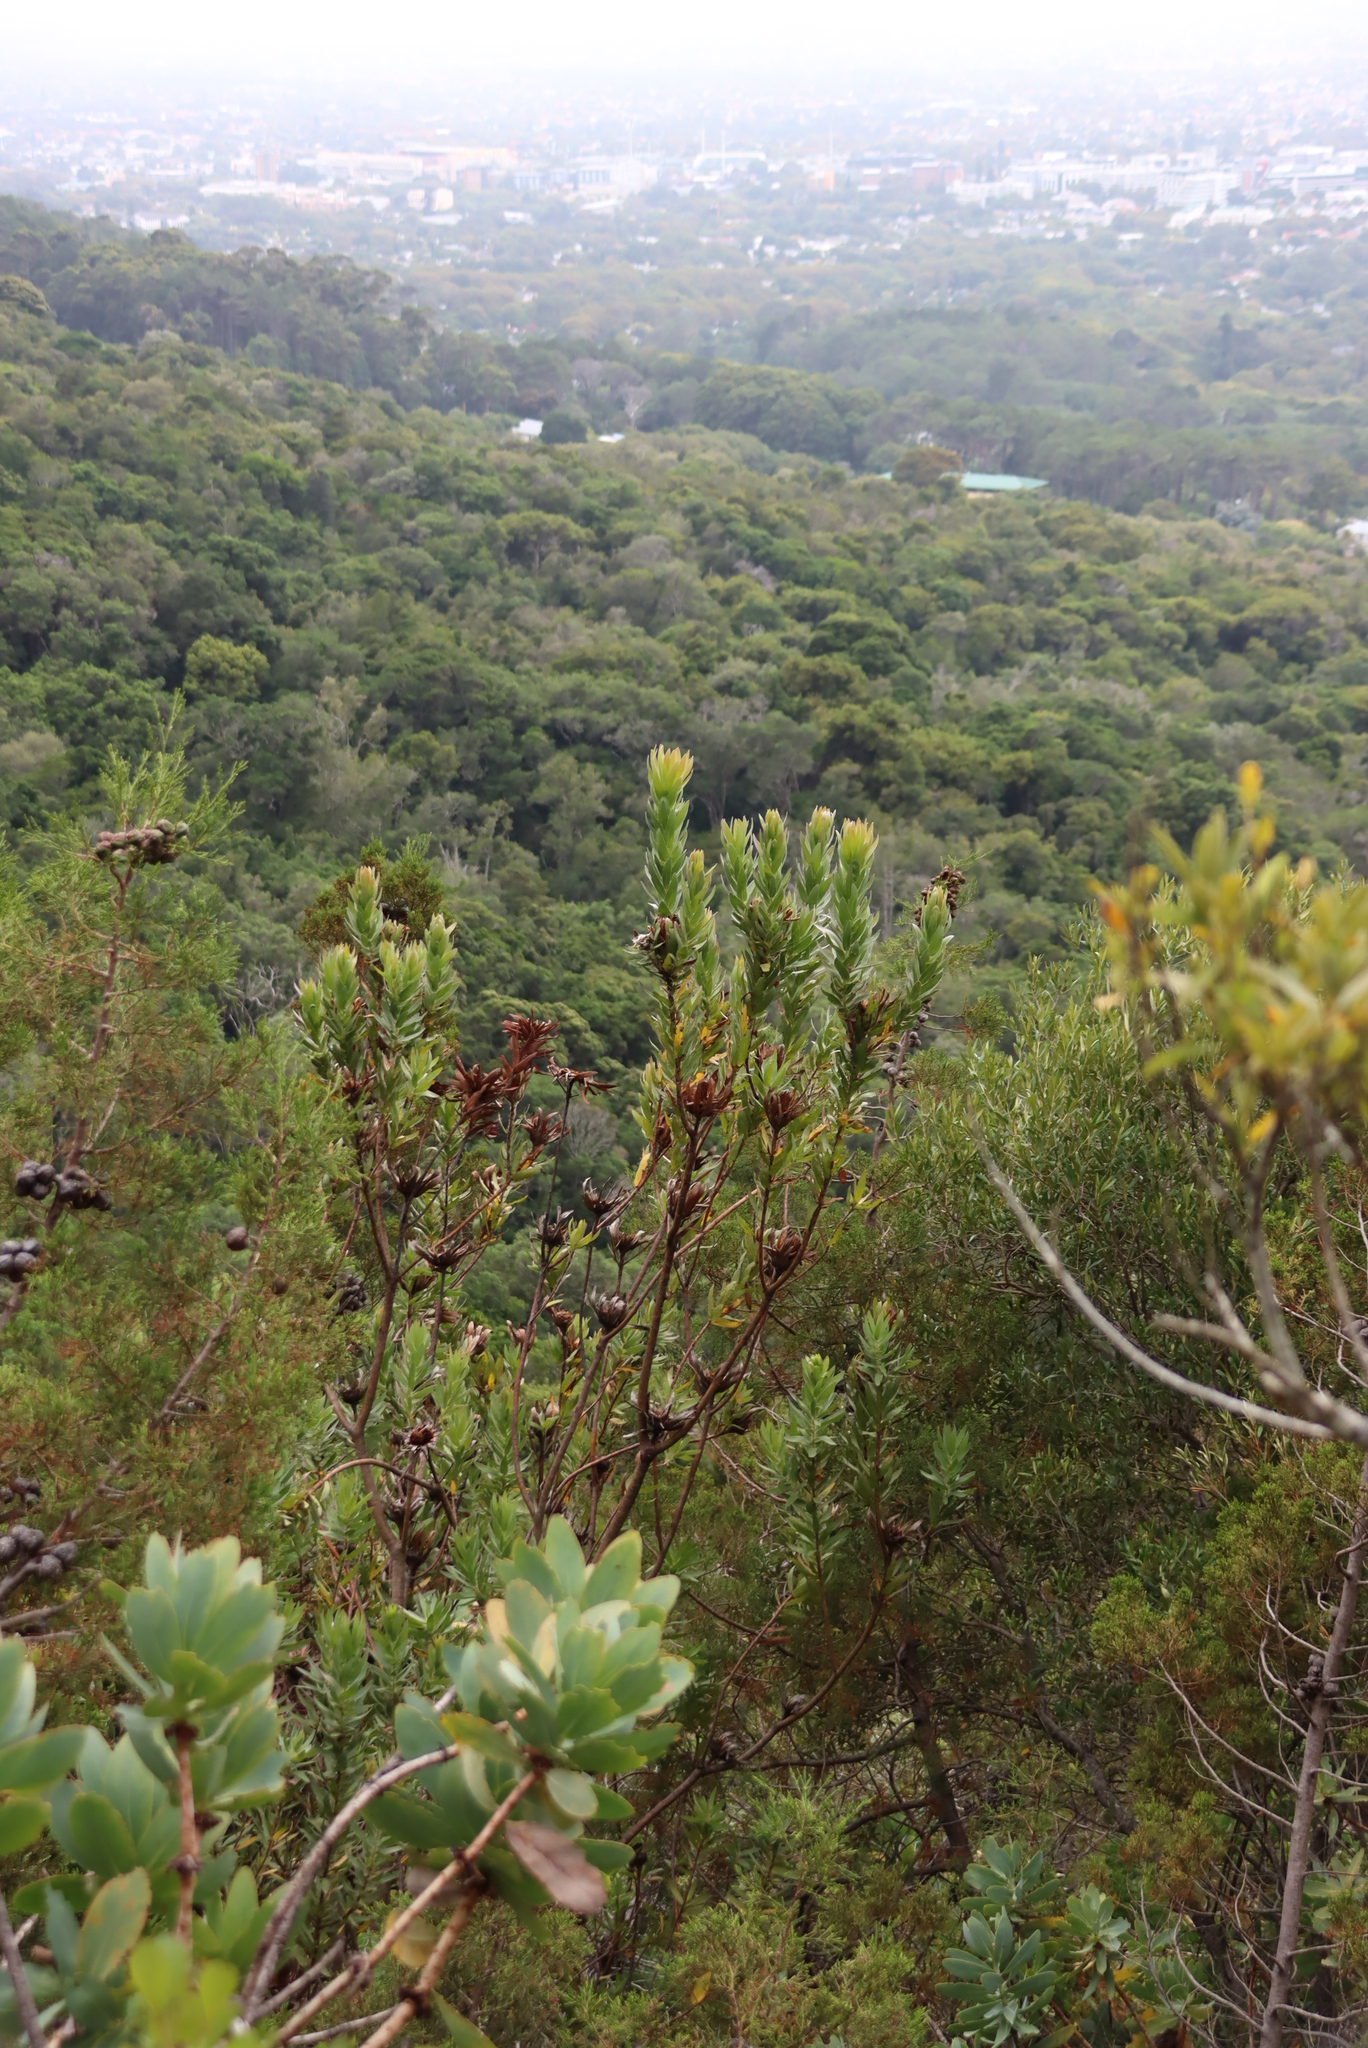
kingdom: Plantae
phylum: Tracheophyta
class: Magnoliopsida
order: Proteales
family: Proteaceae
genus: Protea
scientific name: Protea coronata
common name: Green sugarbush
